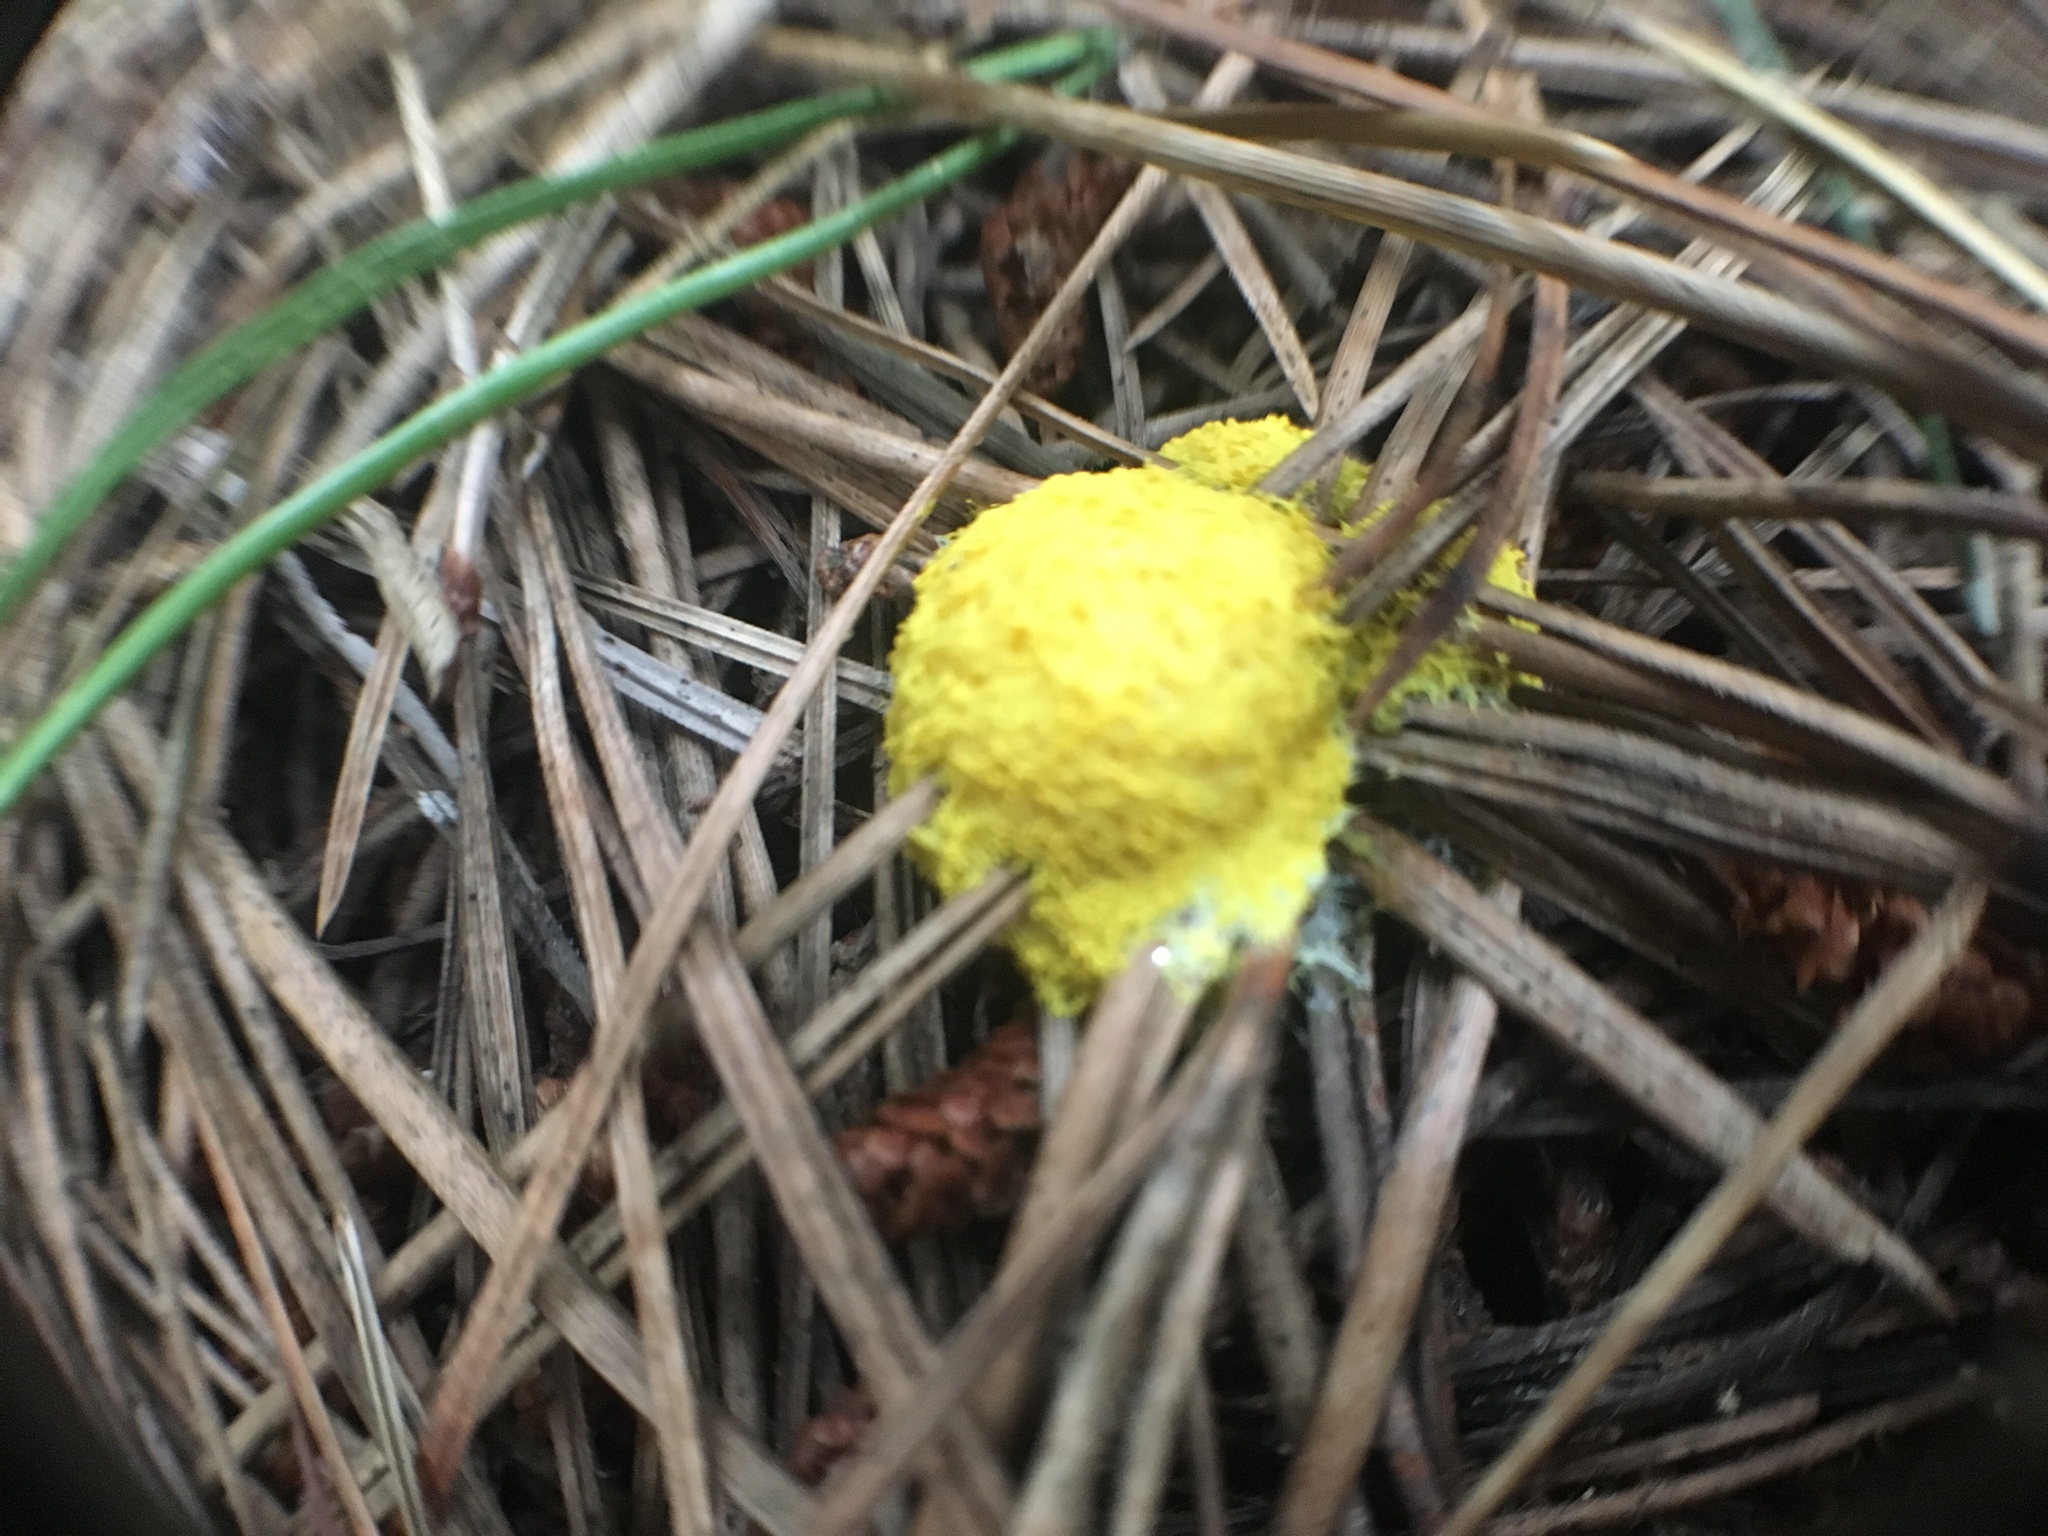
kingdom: Protozoa
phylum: Mycetozoa
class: Myxomycetes
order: Physarales
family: Physaraceae
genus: Fuligo
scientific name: Fuligo septica
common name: Dog vomit slime mold
